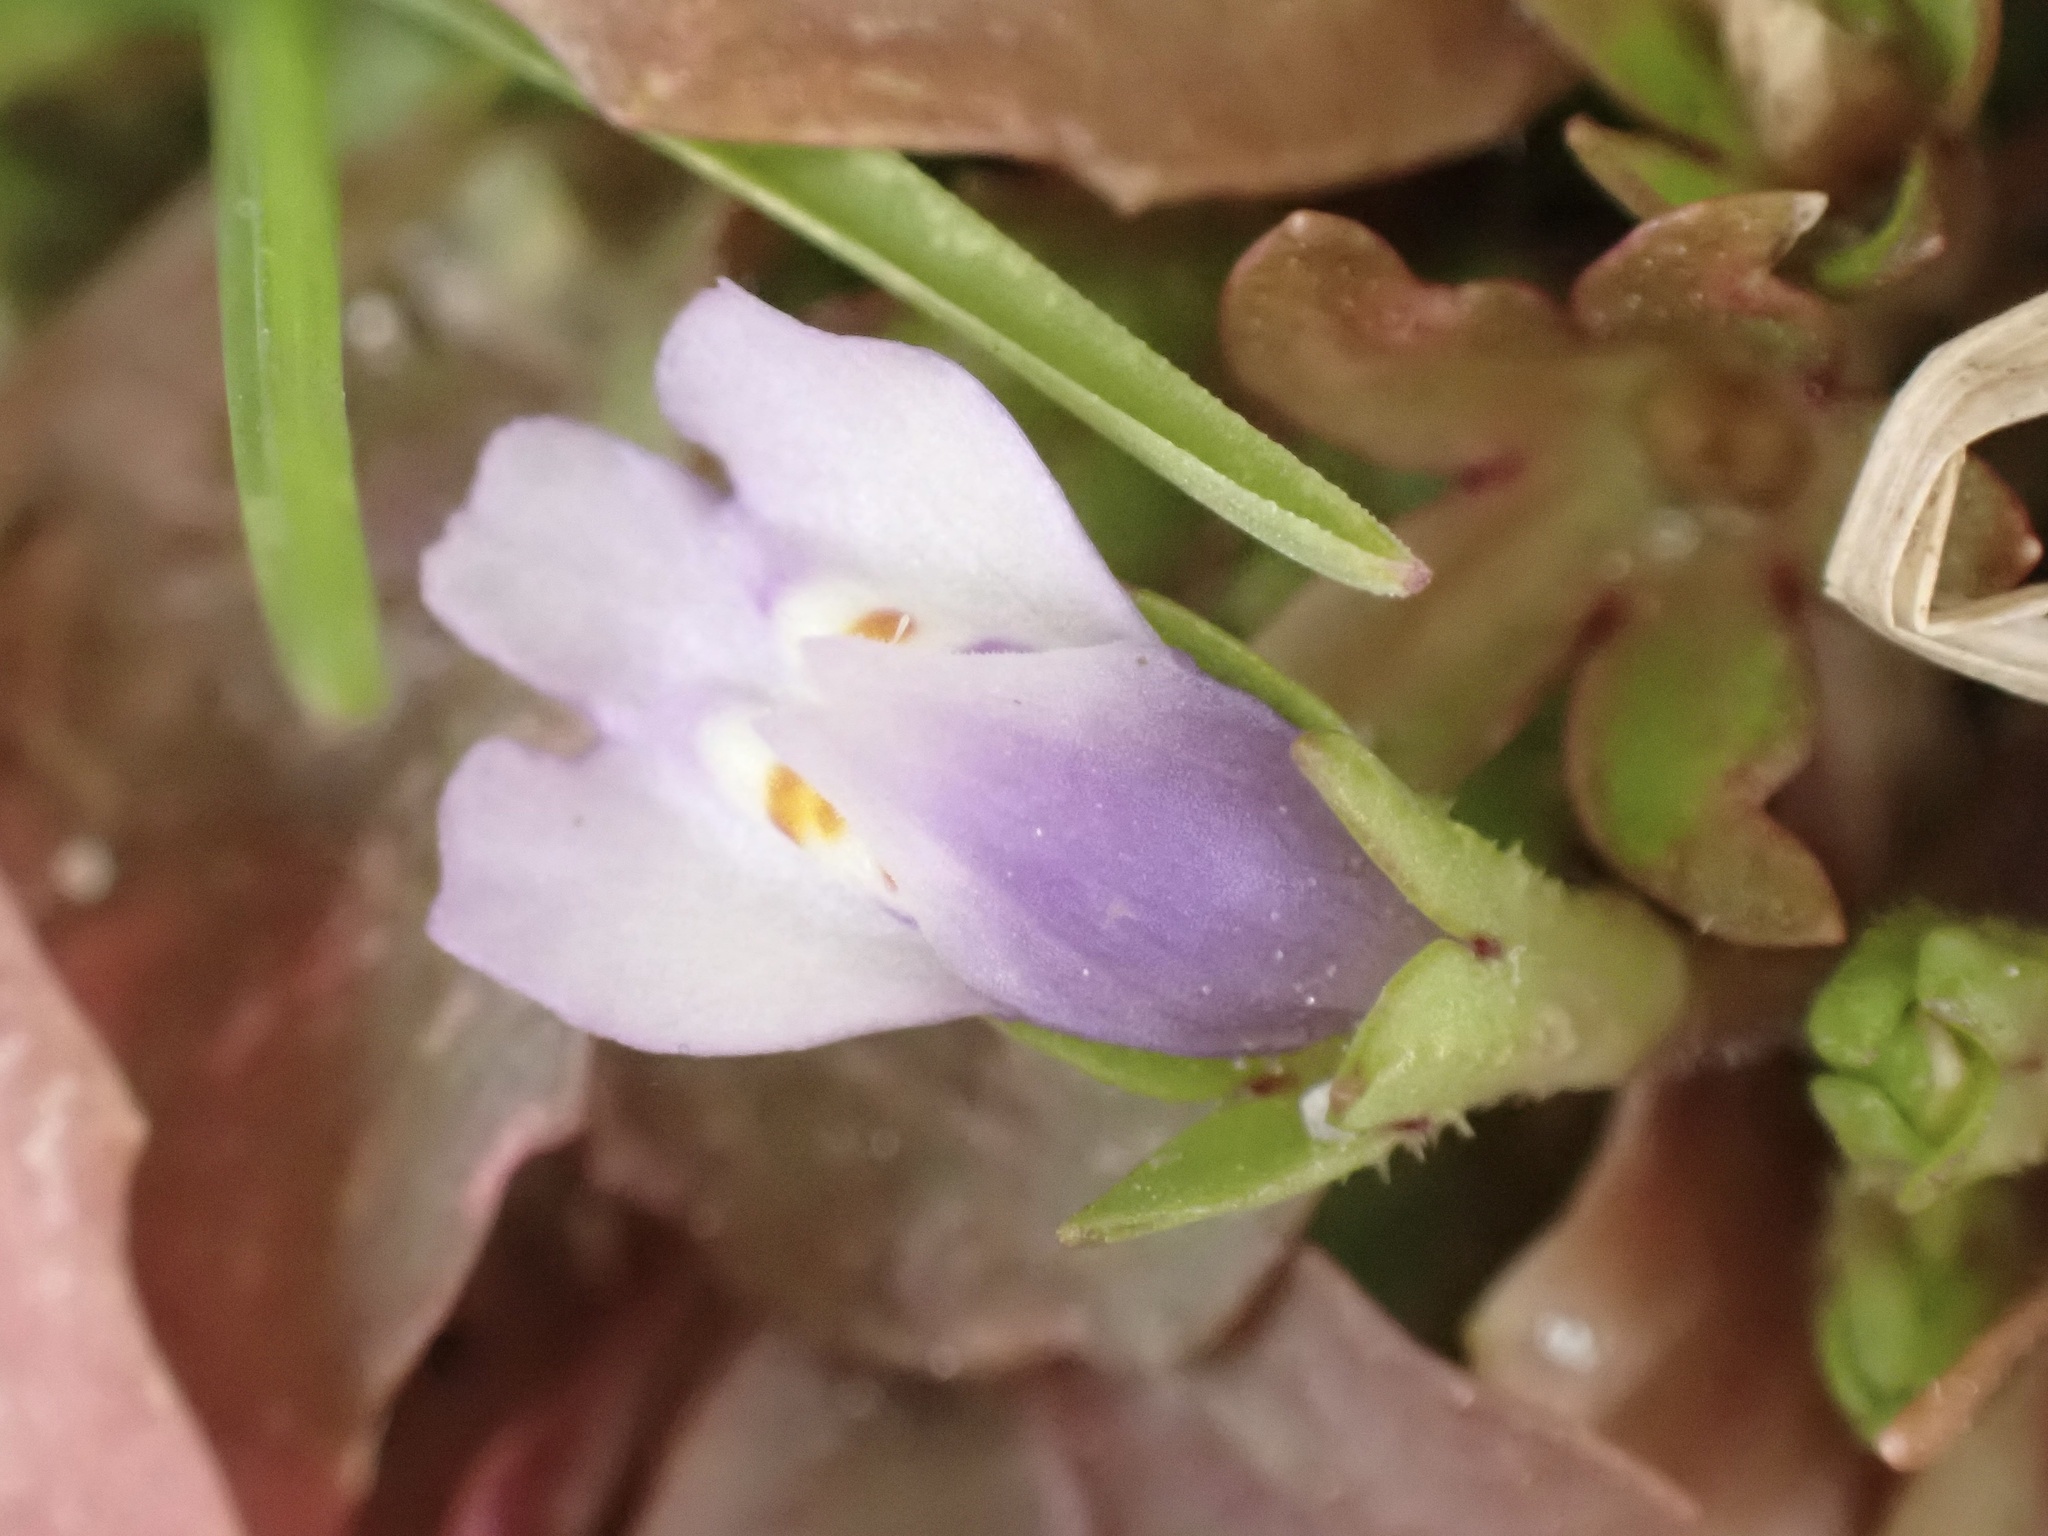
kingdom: Plantae
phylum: Tracheophyta
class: Magnoliopsida
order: Lamiales
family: Mazaceae
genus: Mazus
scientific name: Mazus pumilus
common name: Japanese mazus
